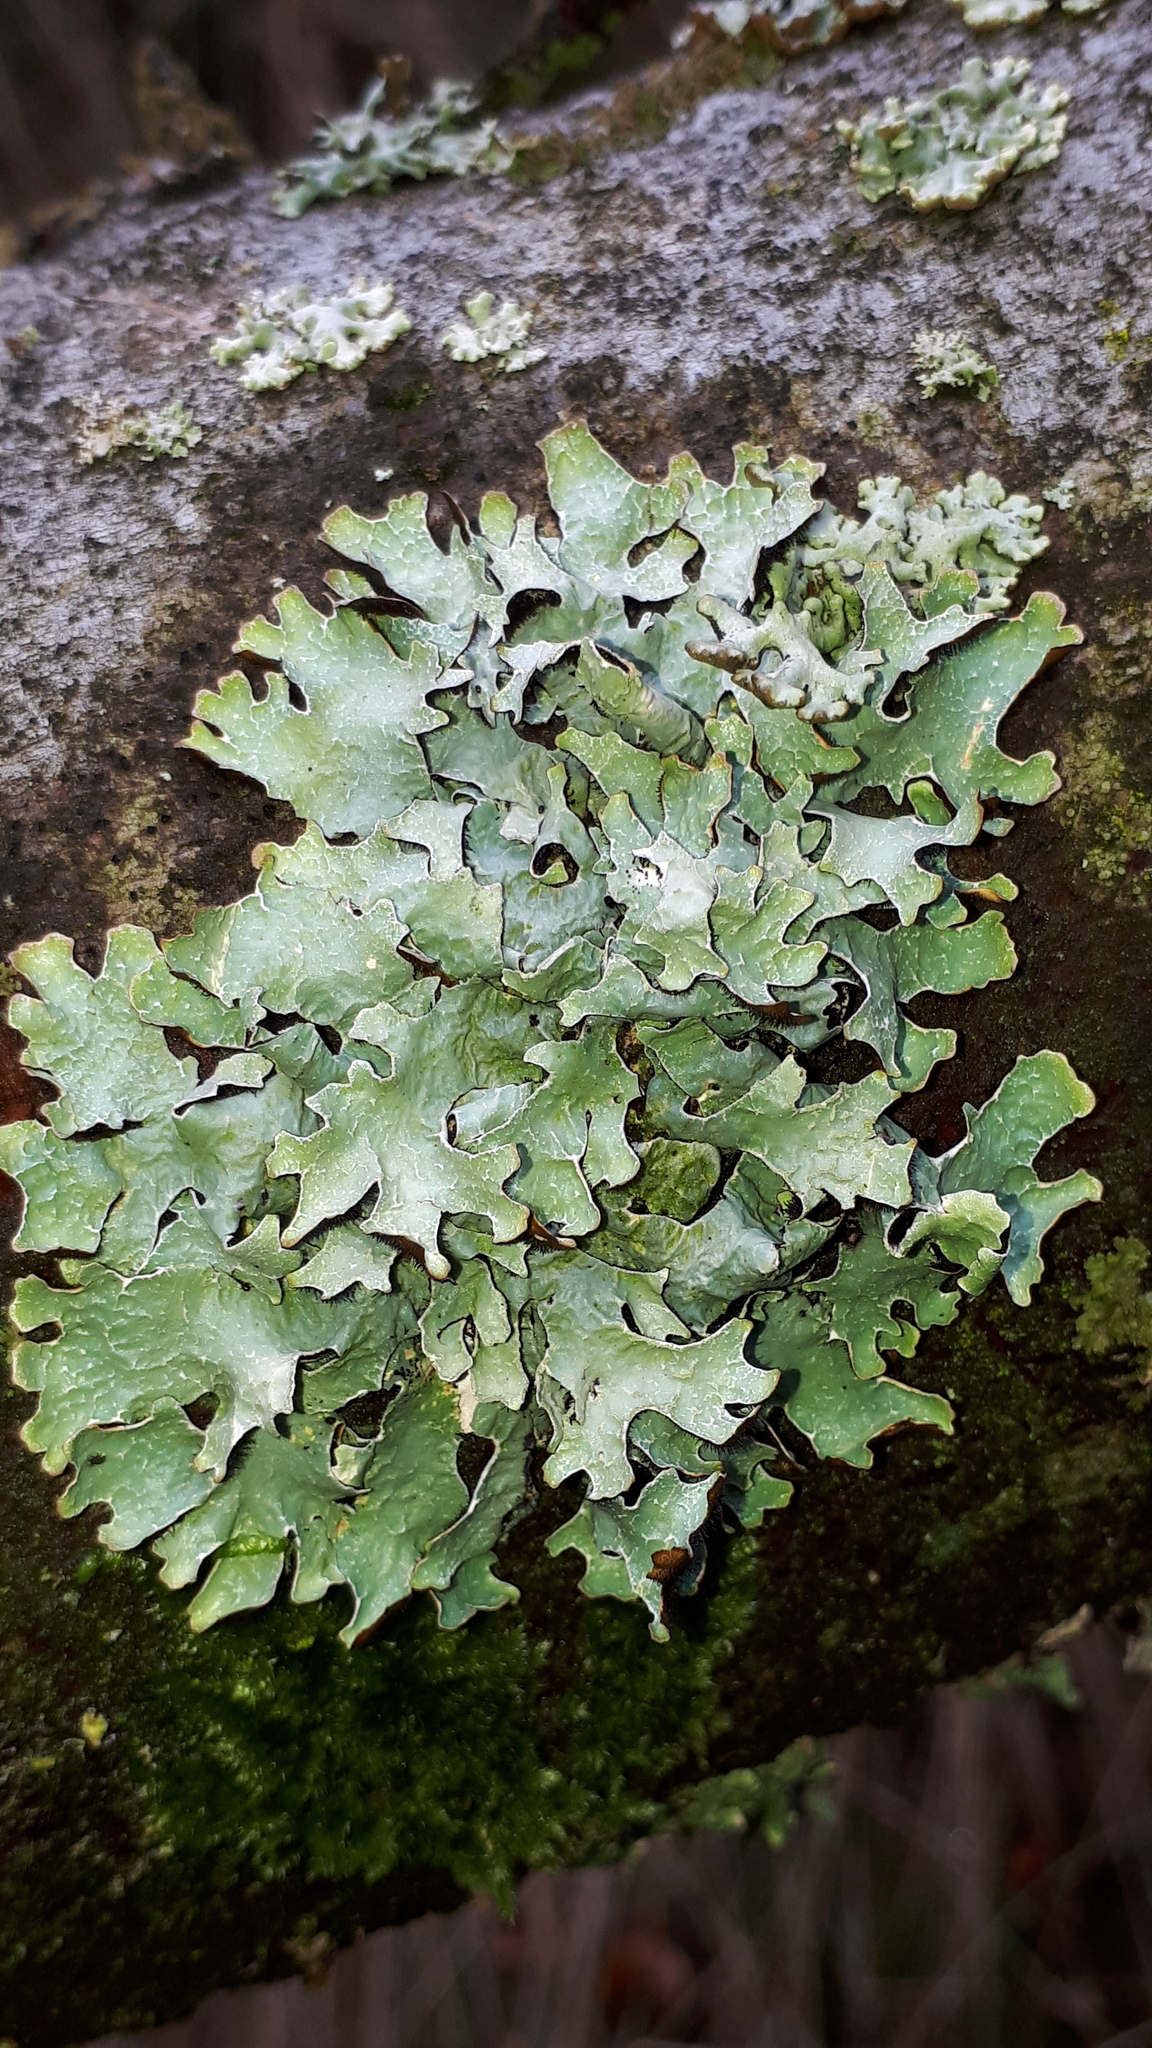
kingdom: Fungi
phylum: Ascomycota
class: Lecanoromycetes
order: Lecanorales
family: Parmeliaceae
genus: Parmelia
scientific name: Parmelia sulcata
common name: Netted shield lichen
